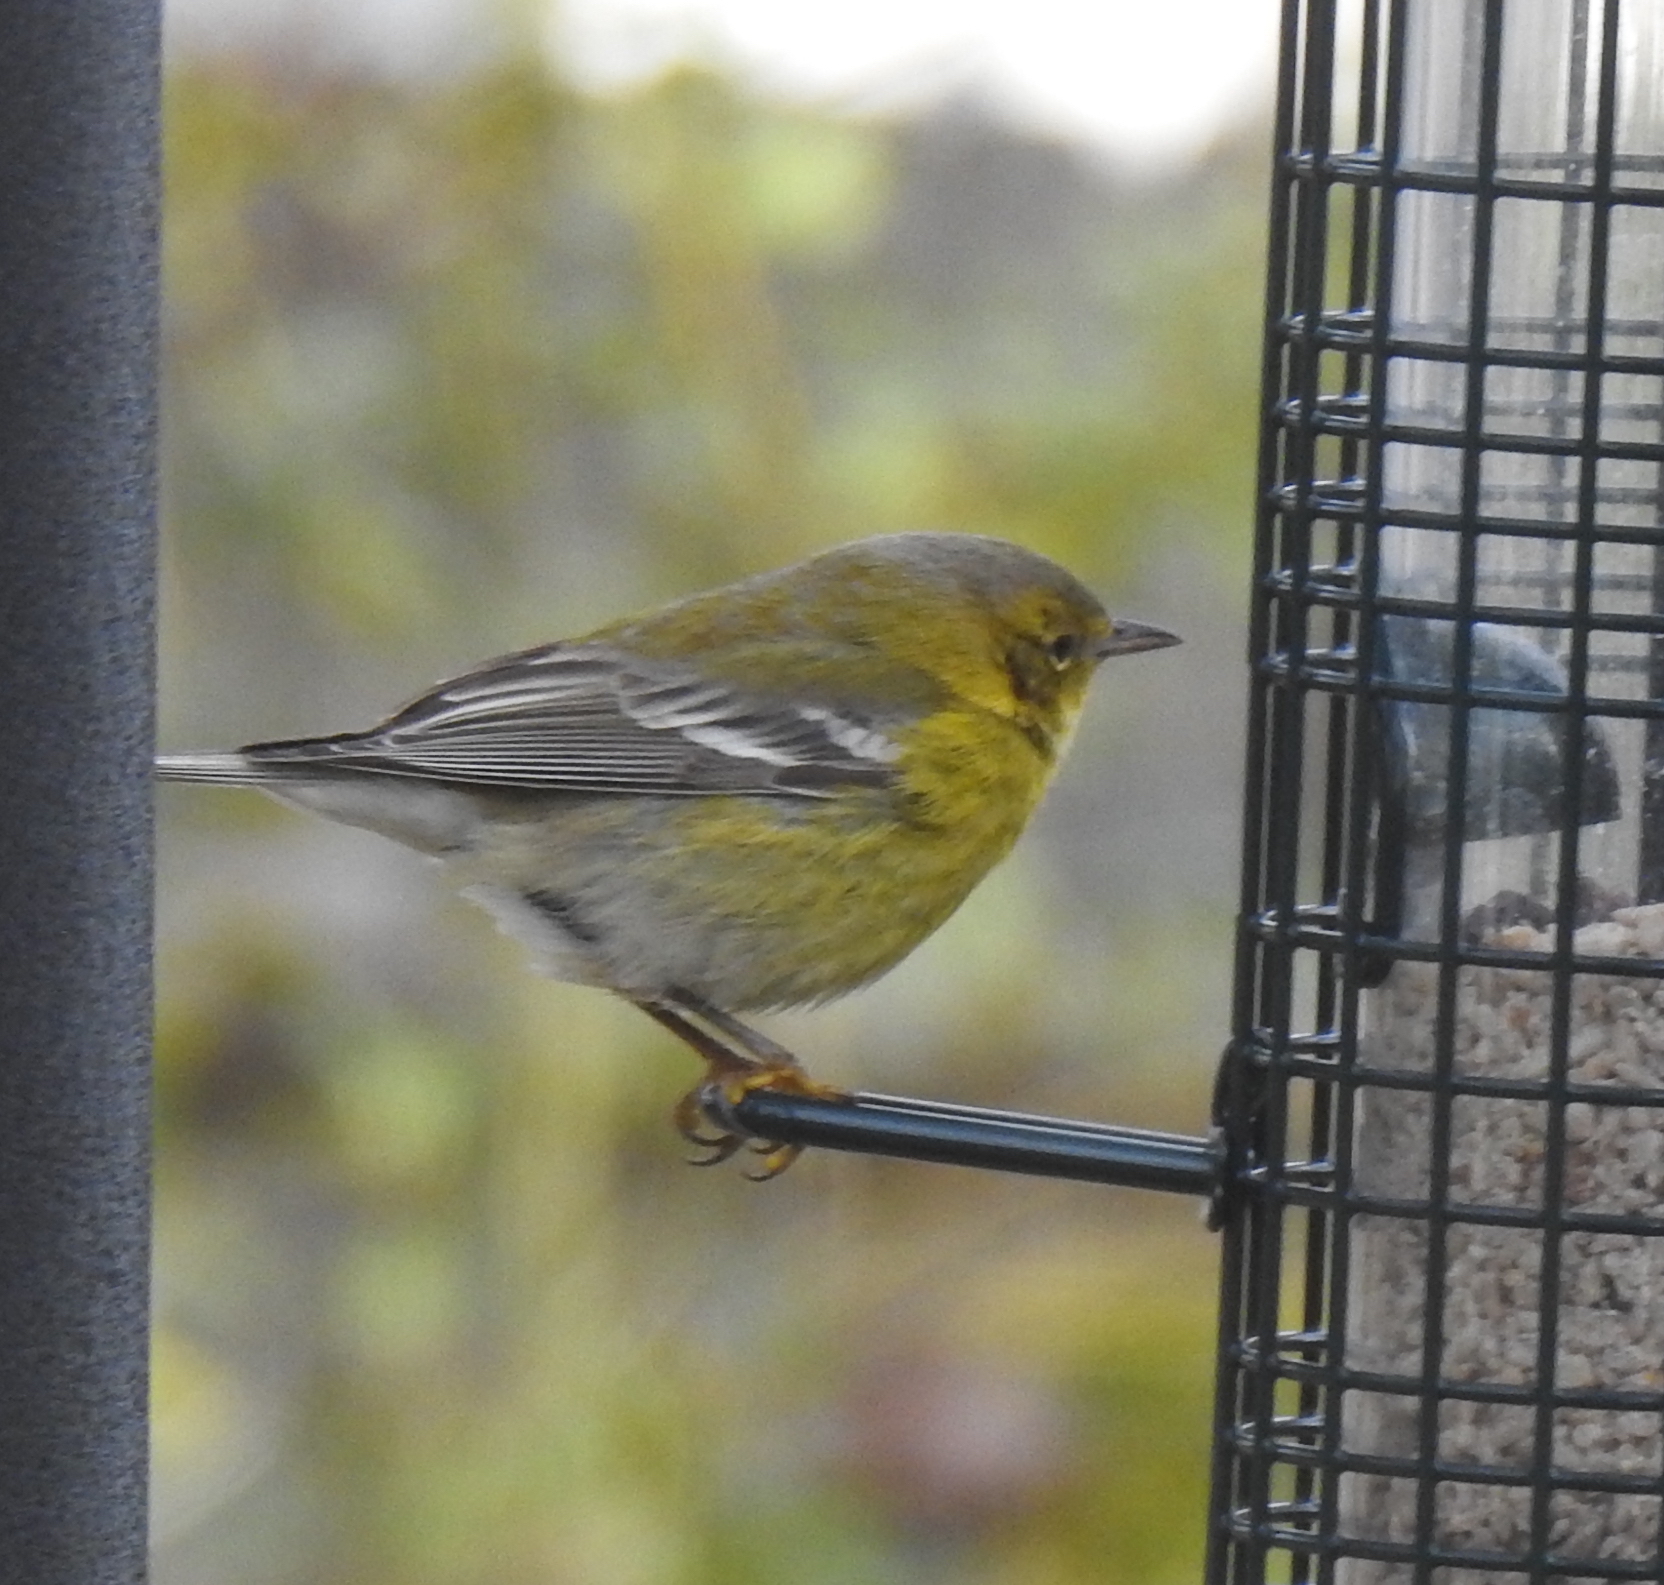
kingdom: Animalia
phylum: Chordata
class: Aves
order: Passeriformes
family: Parulidae
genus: Setophaga
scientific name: Setophaga pinus
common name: Pine warbler
